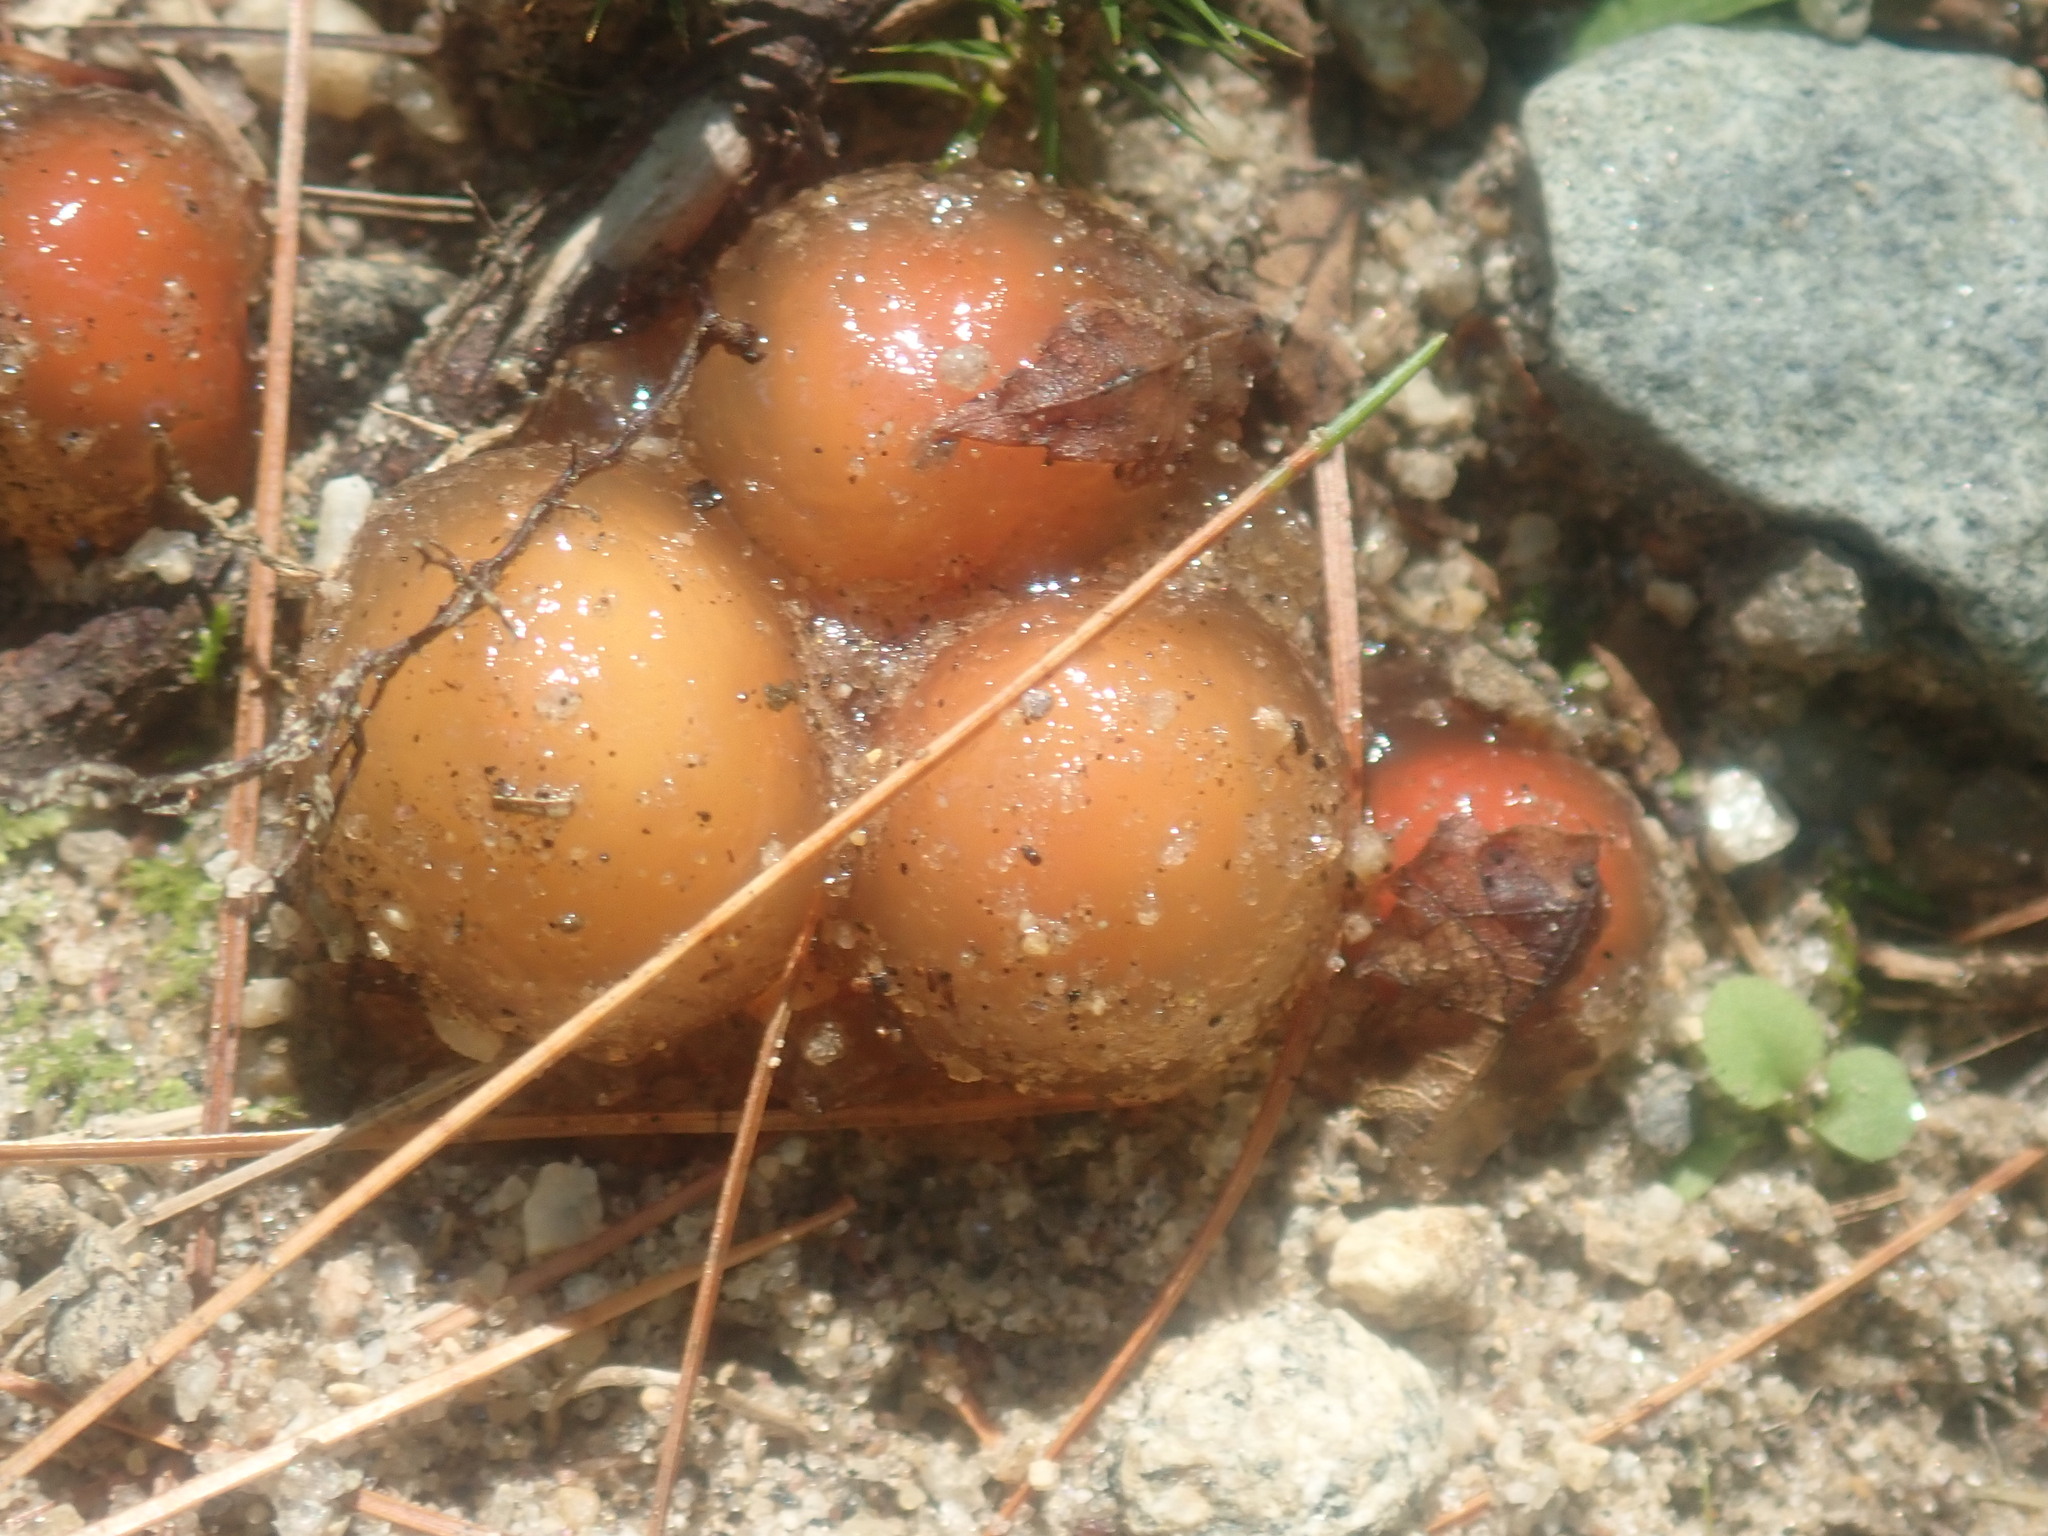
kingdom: Fungi
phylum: Basidiomycota
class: Agaricomycetes
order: Boletales
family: Calostomataceae
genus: Calostoma
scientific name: Calostoma cinnabarinum
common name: Stalked puffball-in-aspic
